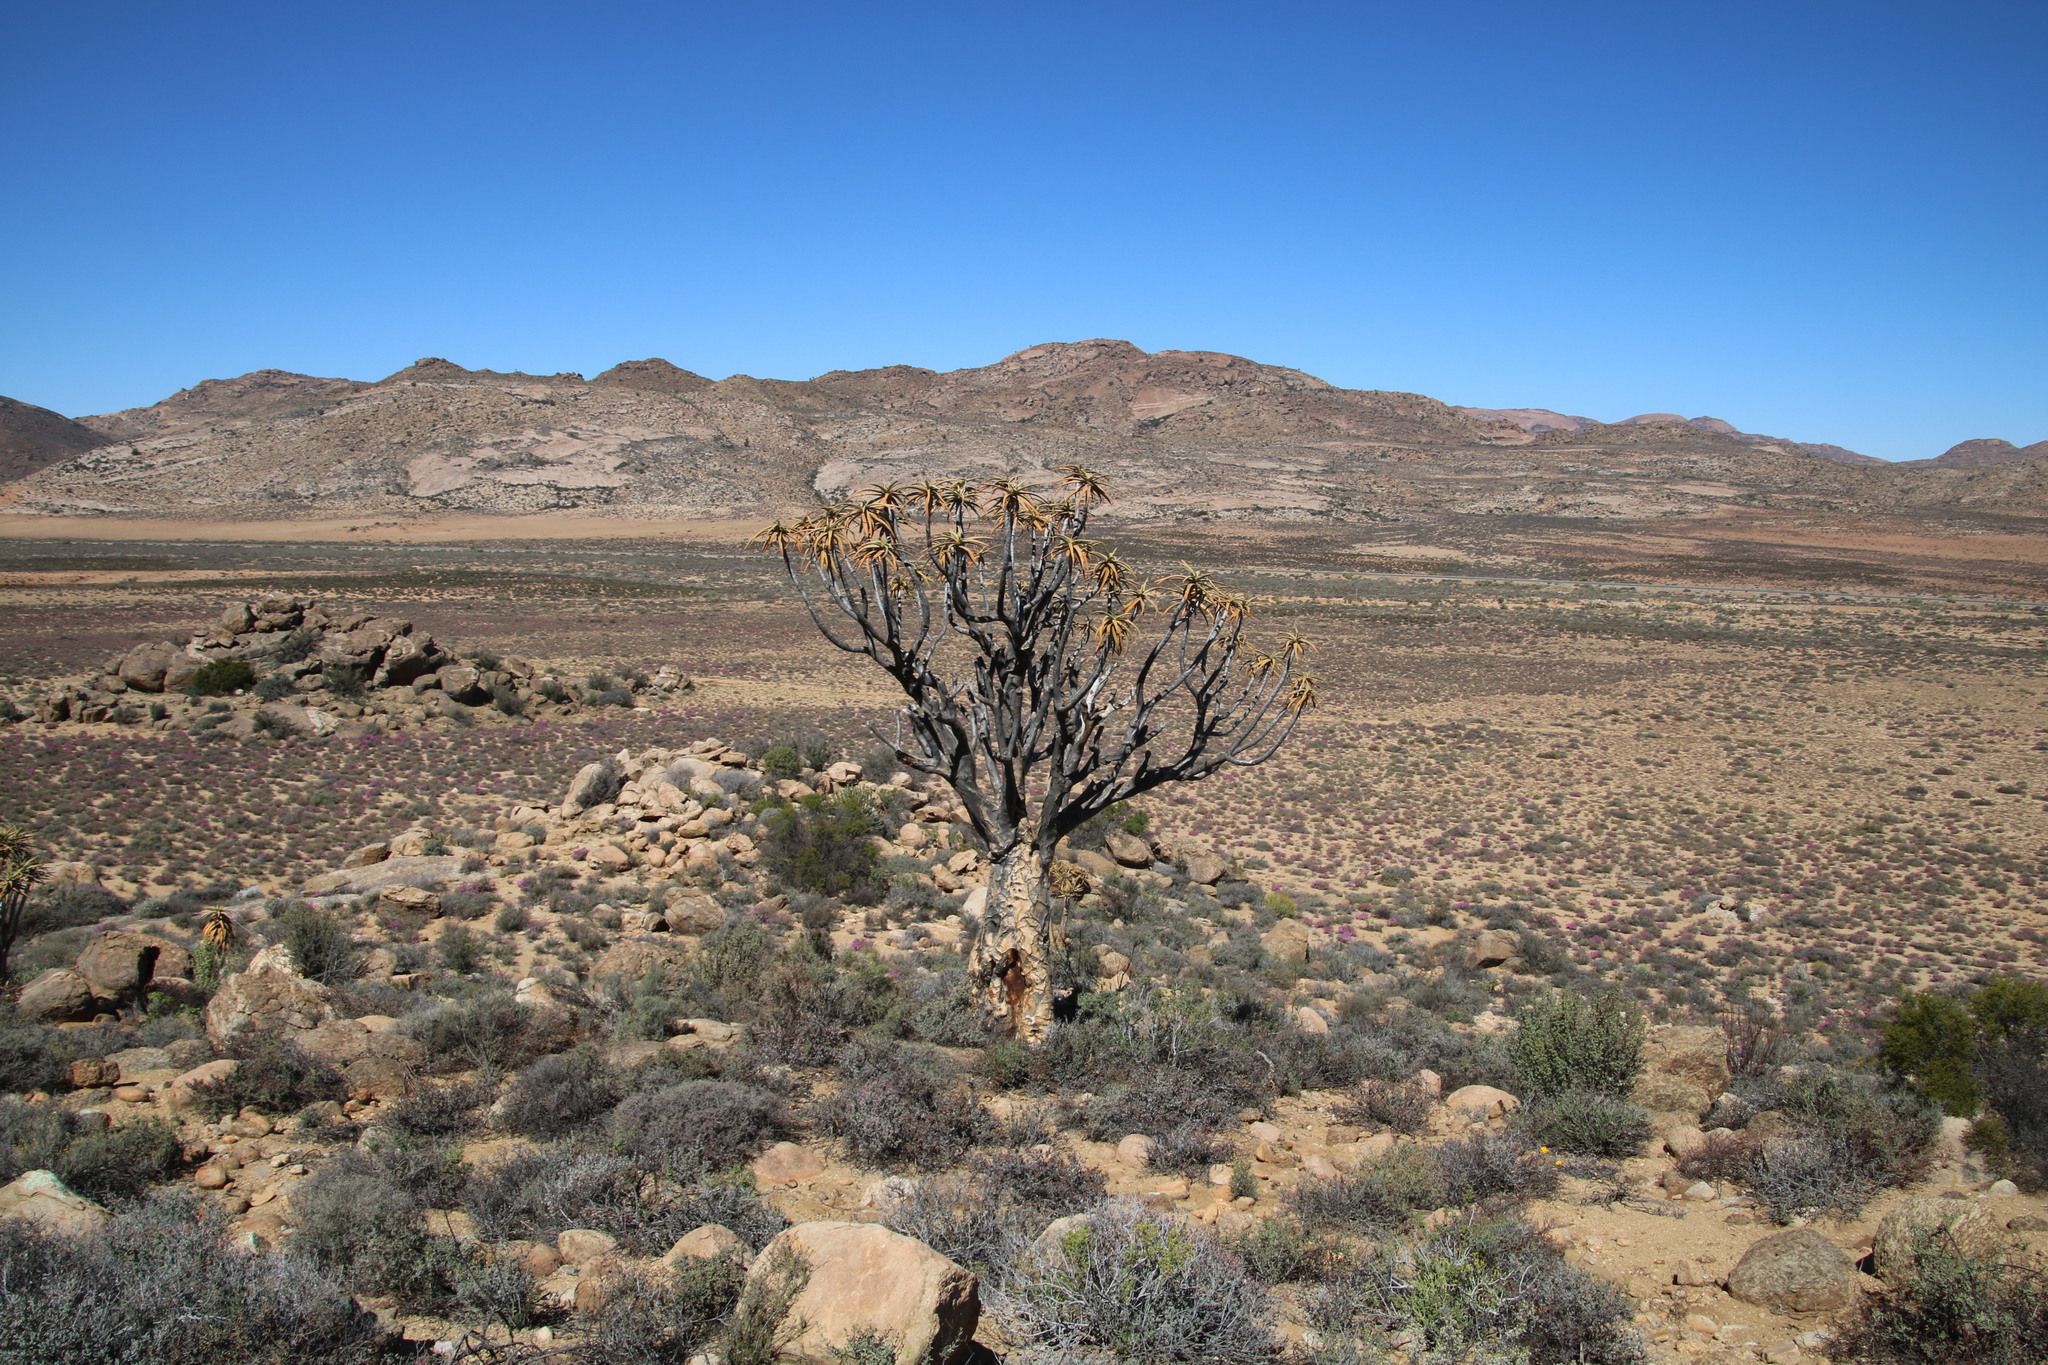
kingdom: Plantae
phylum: Tracheophyta
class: Liliopsida
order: Asparagales
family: Asphodelaceae
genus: Aloidendron
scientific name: Aloidendron dichotomum
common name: Quiver tree
